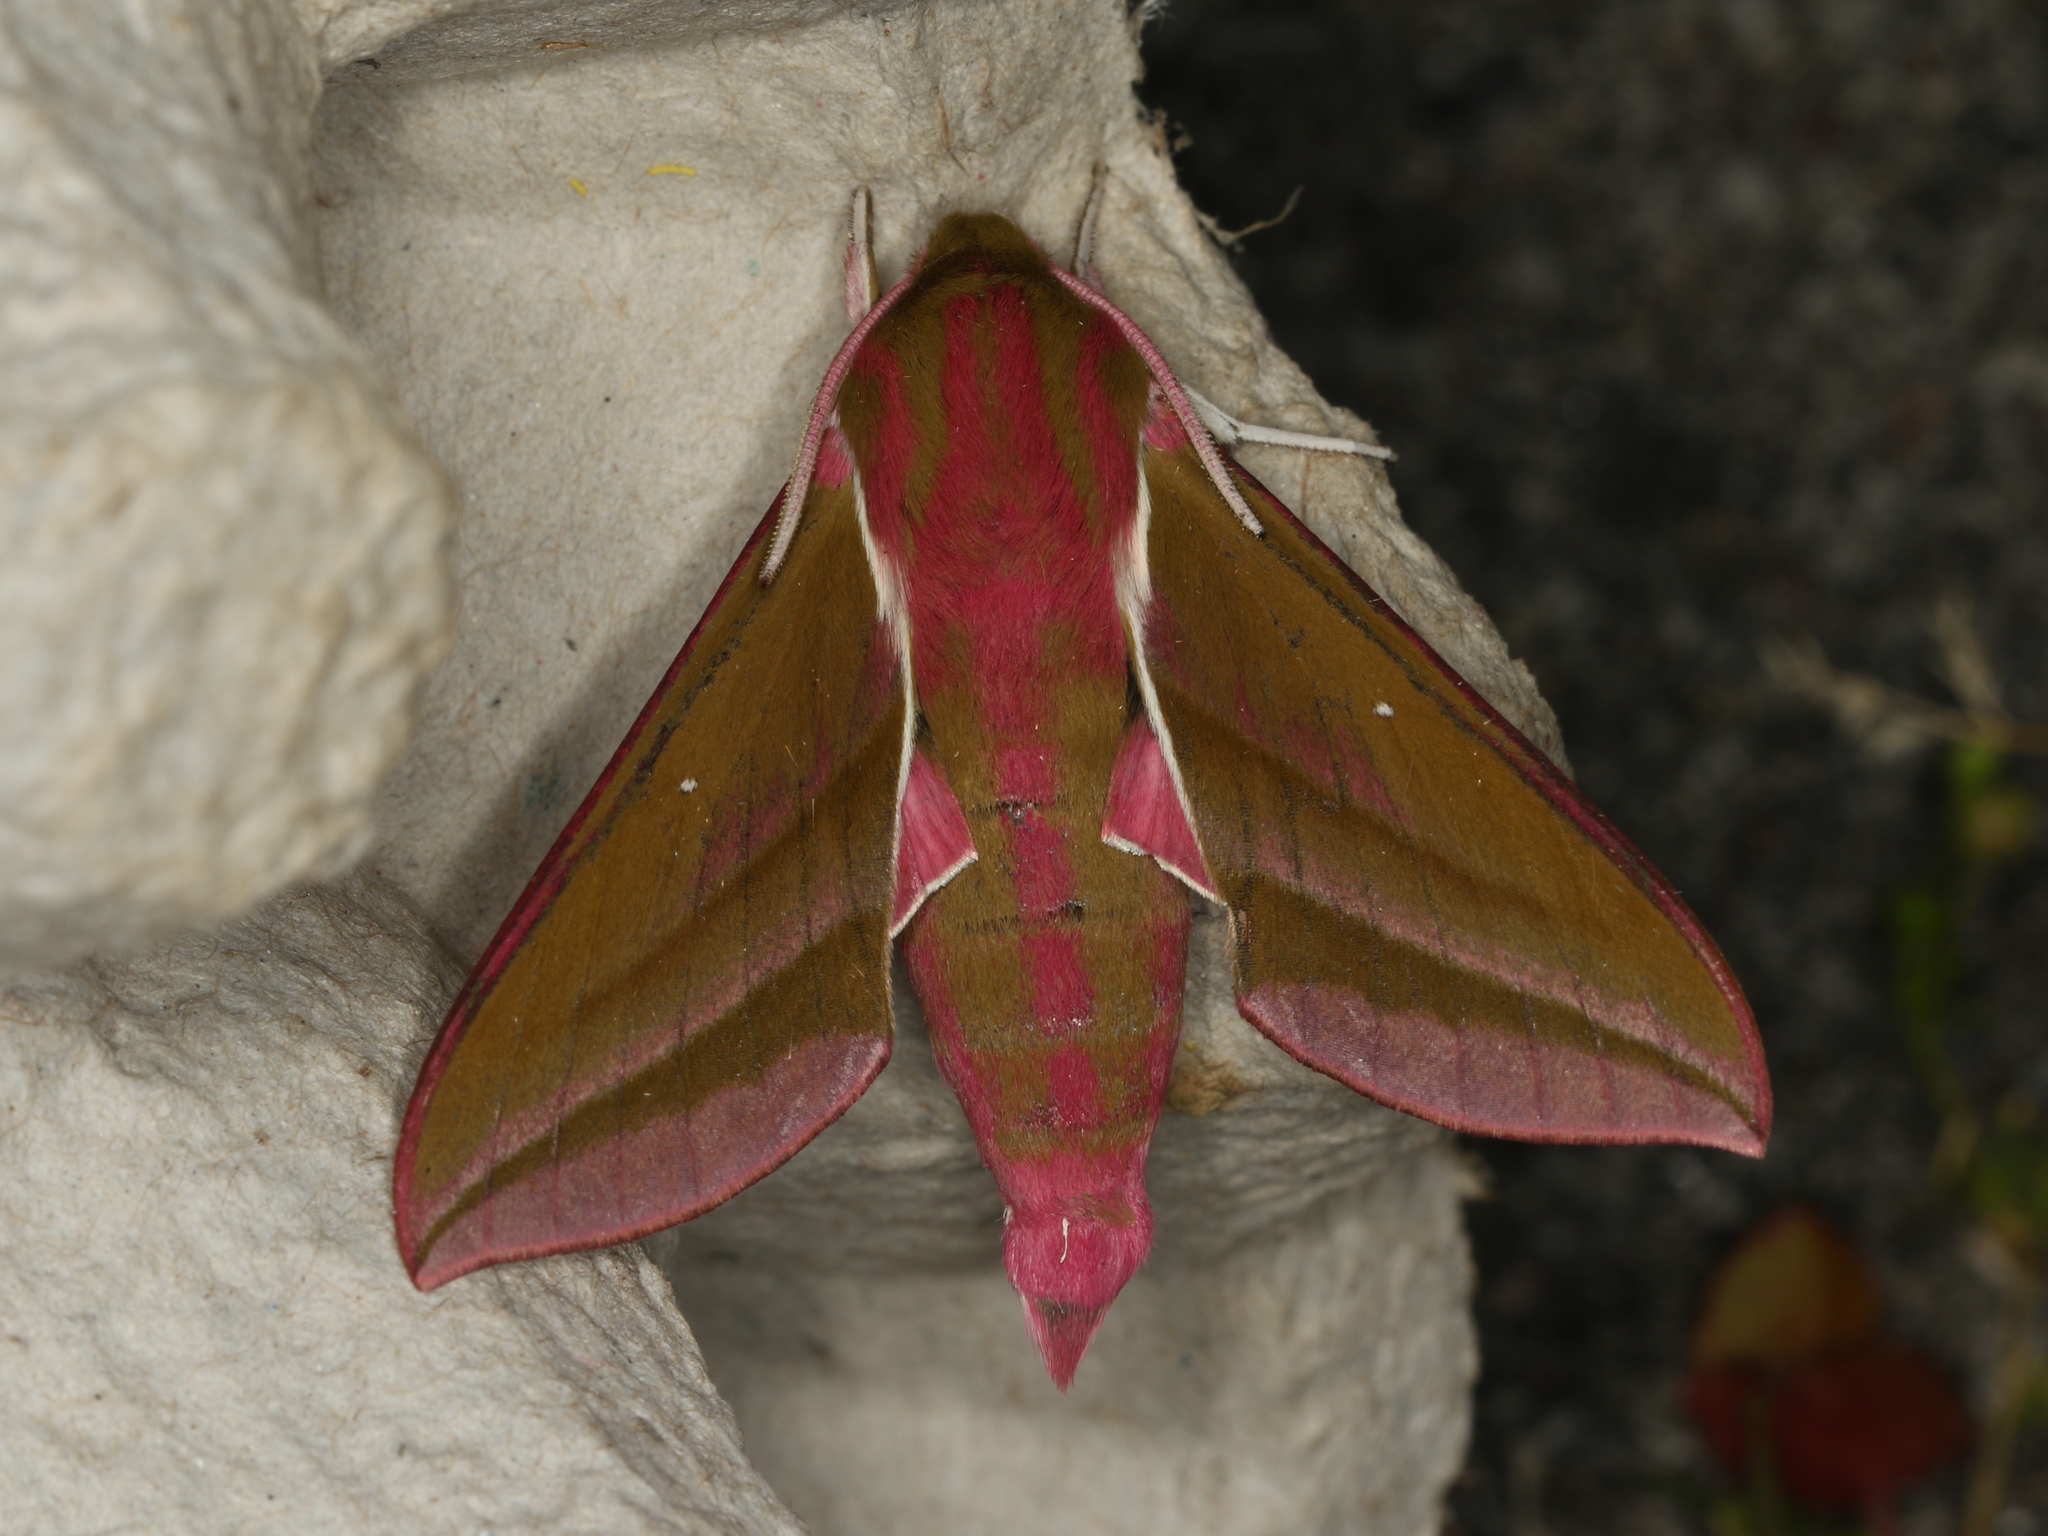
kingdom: Animalia
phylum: Arthropoda
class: Insecta
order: Lepidoptera
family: Sphingidae
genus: Deilephila
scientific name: Deilephila elpenor
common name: Elephant hawk-moth
